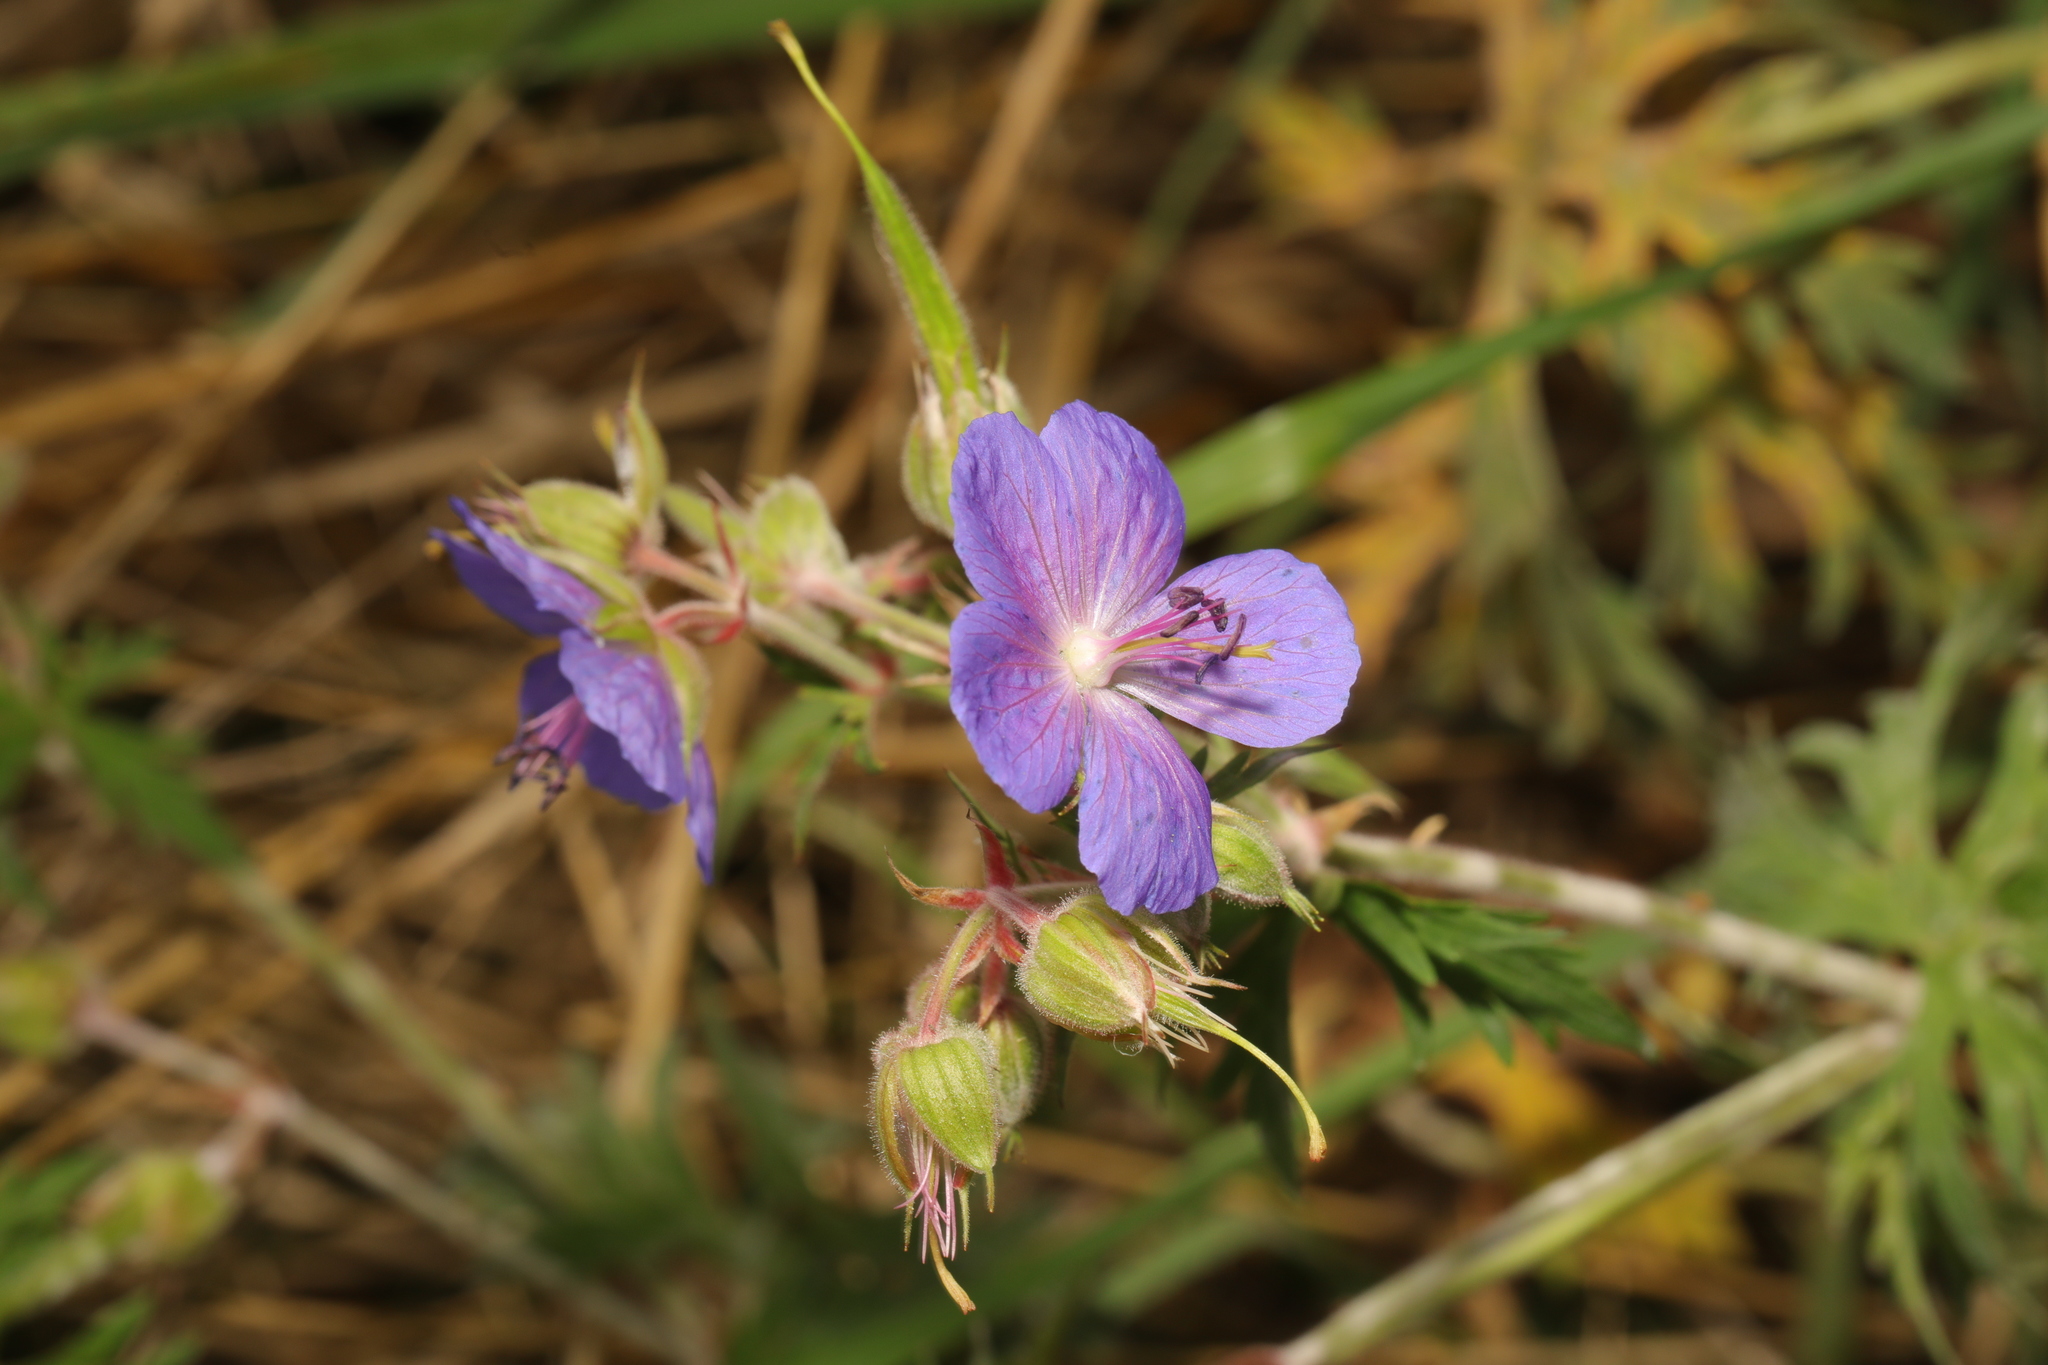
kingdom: Plantae
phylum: Tracheophyta
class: Magnoliopsida
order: Geraniales
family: Geraniaceae
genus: Geranium
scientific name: Geranium pratense
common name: Meadow crane's-bill
